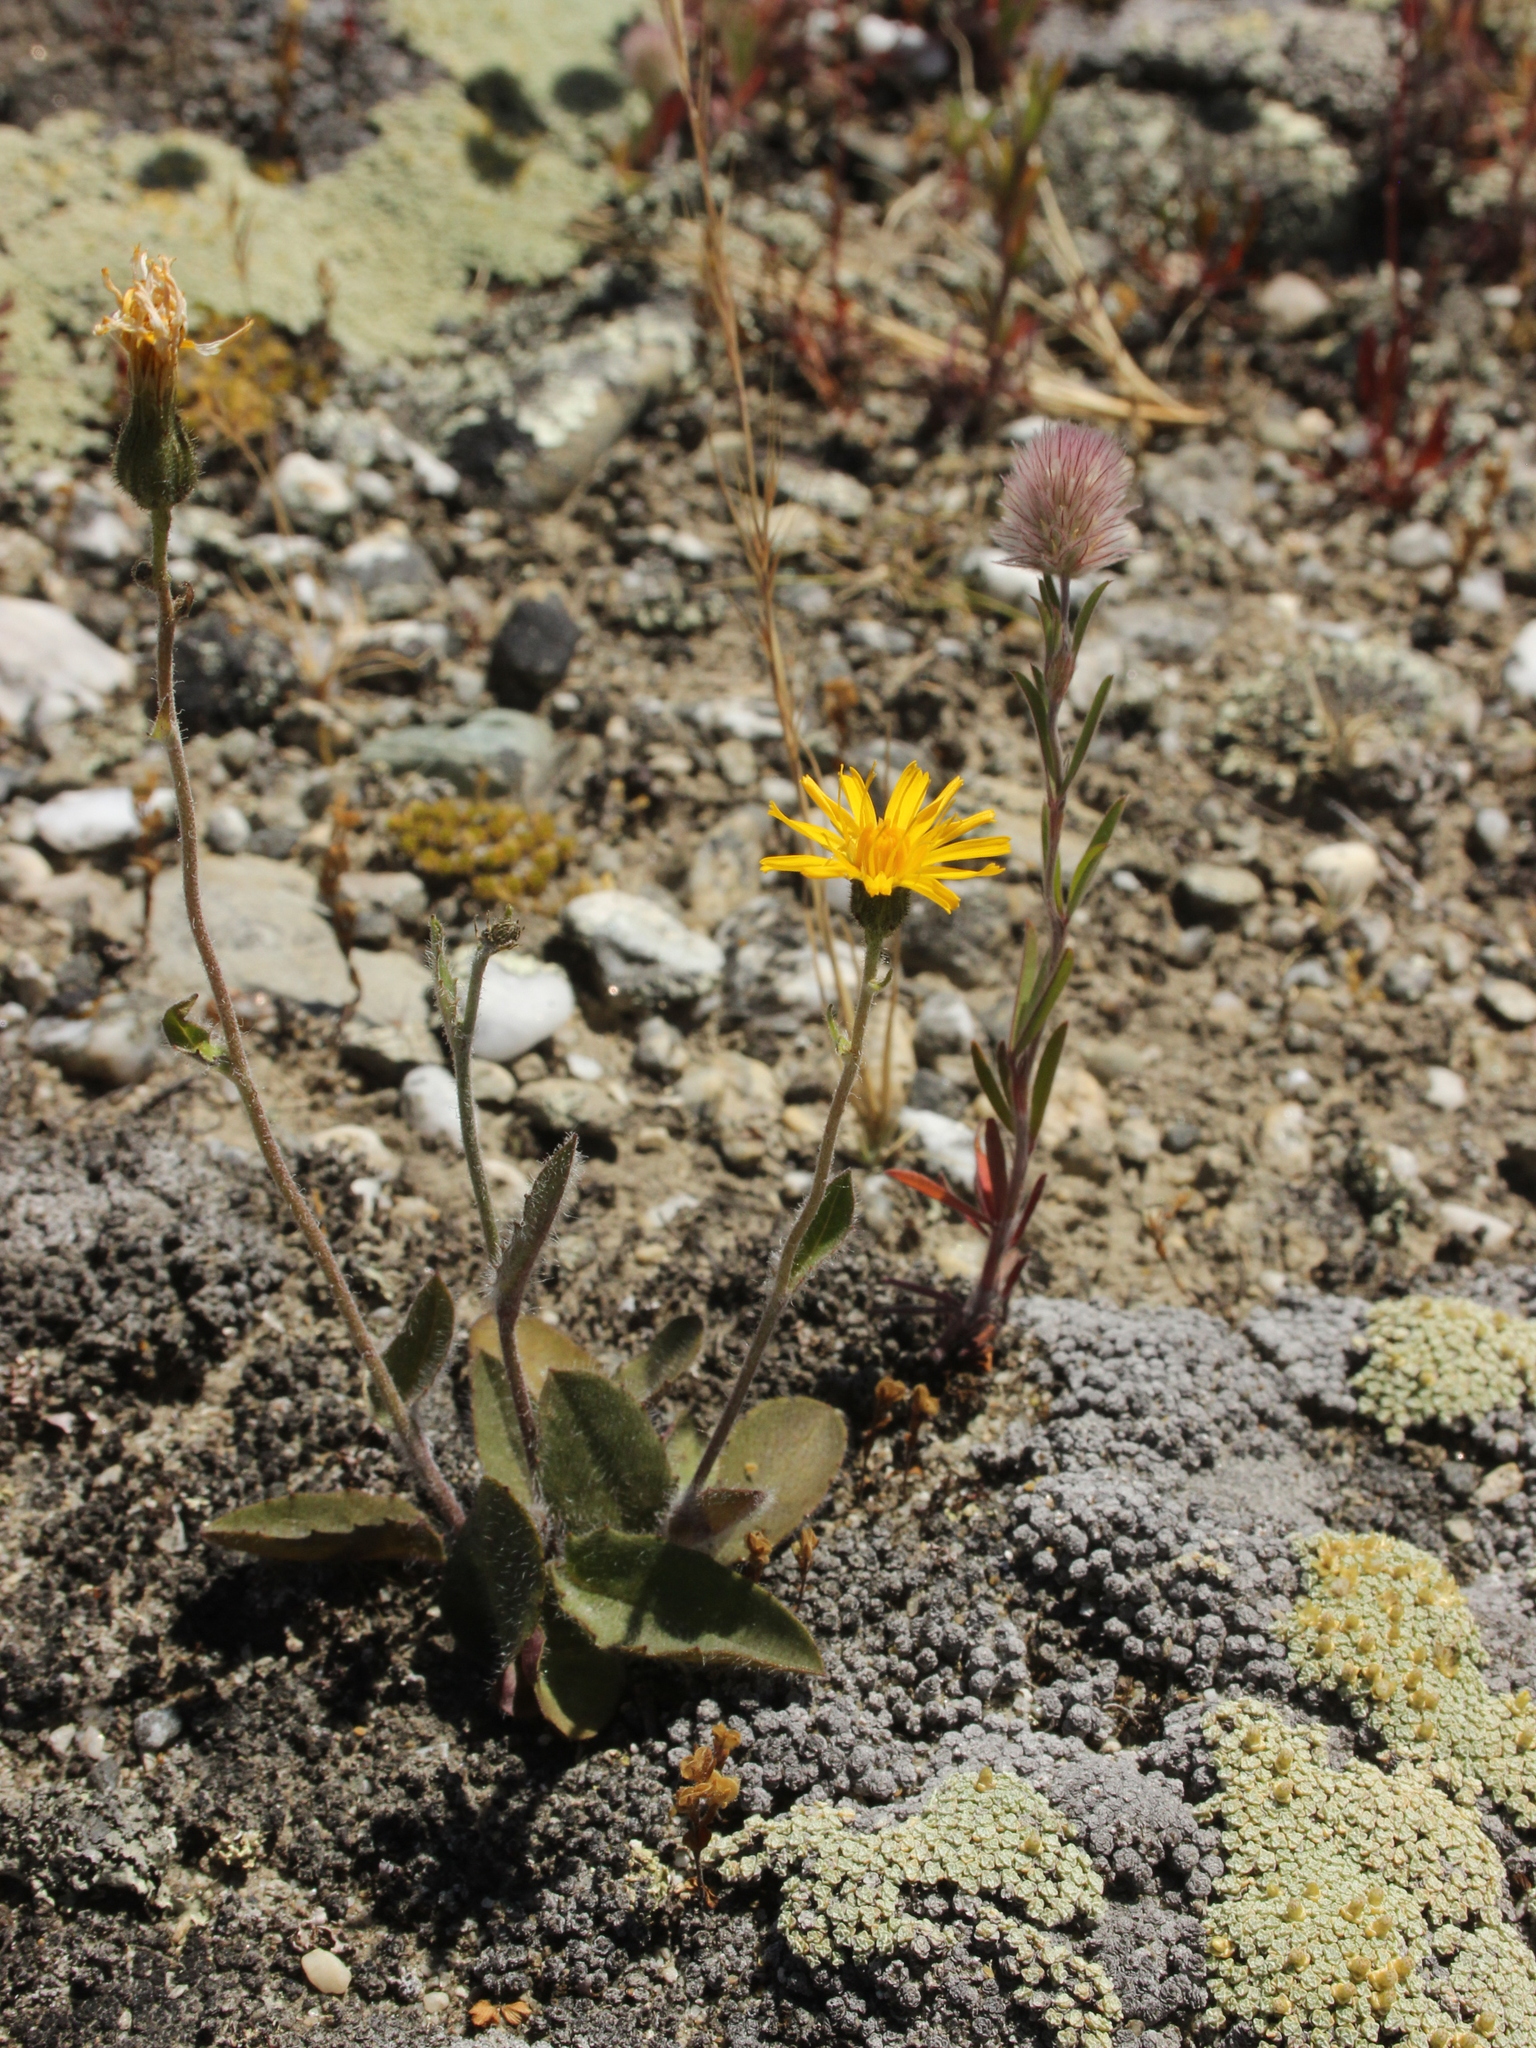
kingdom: Plantae
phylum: Tracheophyta
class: Magnoliopsida
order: Asterales
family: Asteraceae
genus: Hieracium
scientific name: Hieracium lepidulum
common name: Irregular-toothed hawkweed
